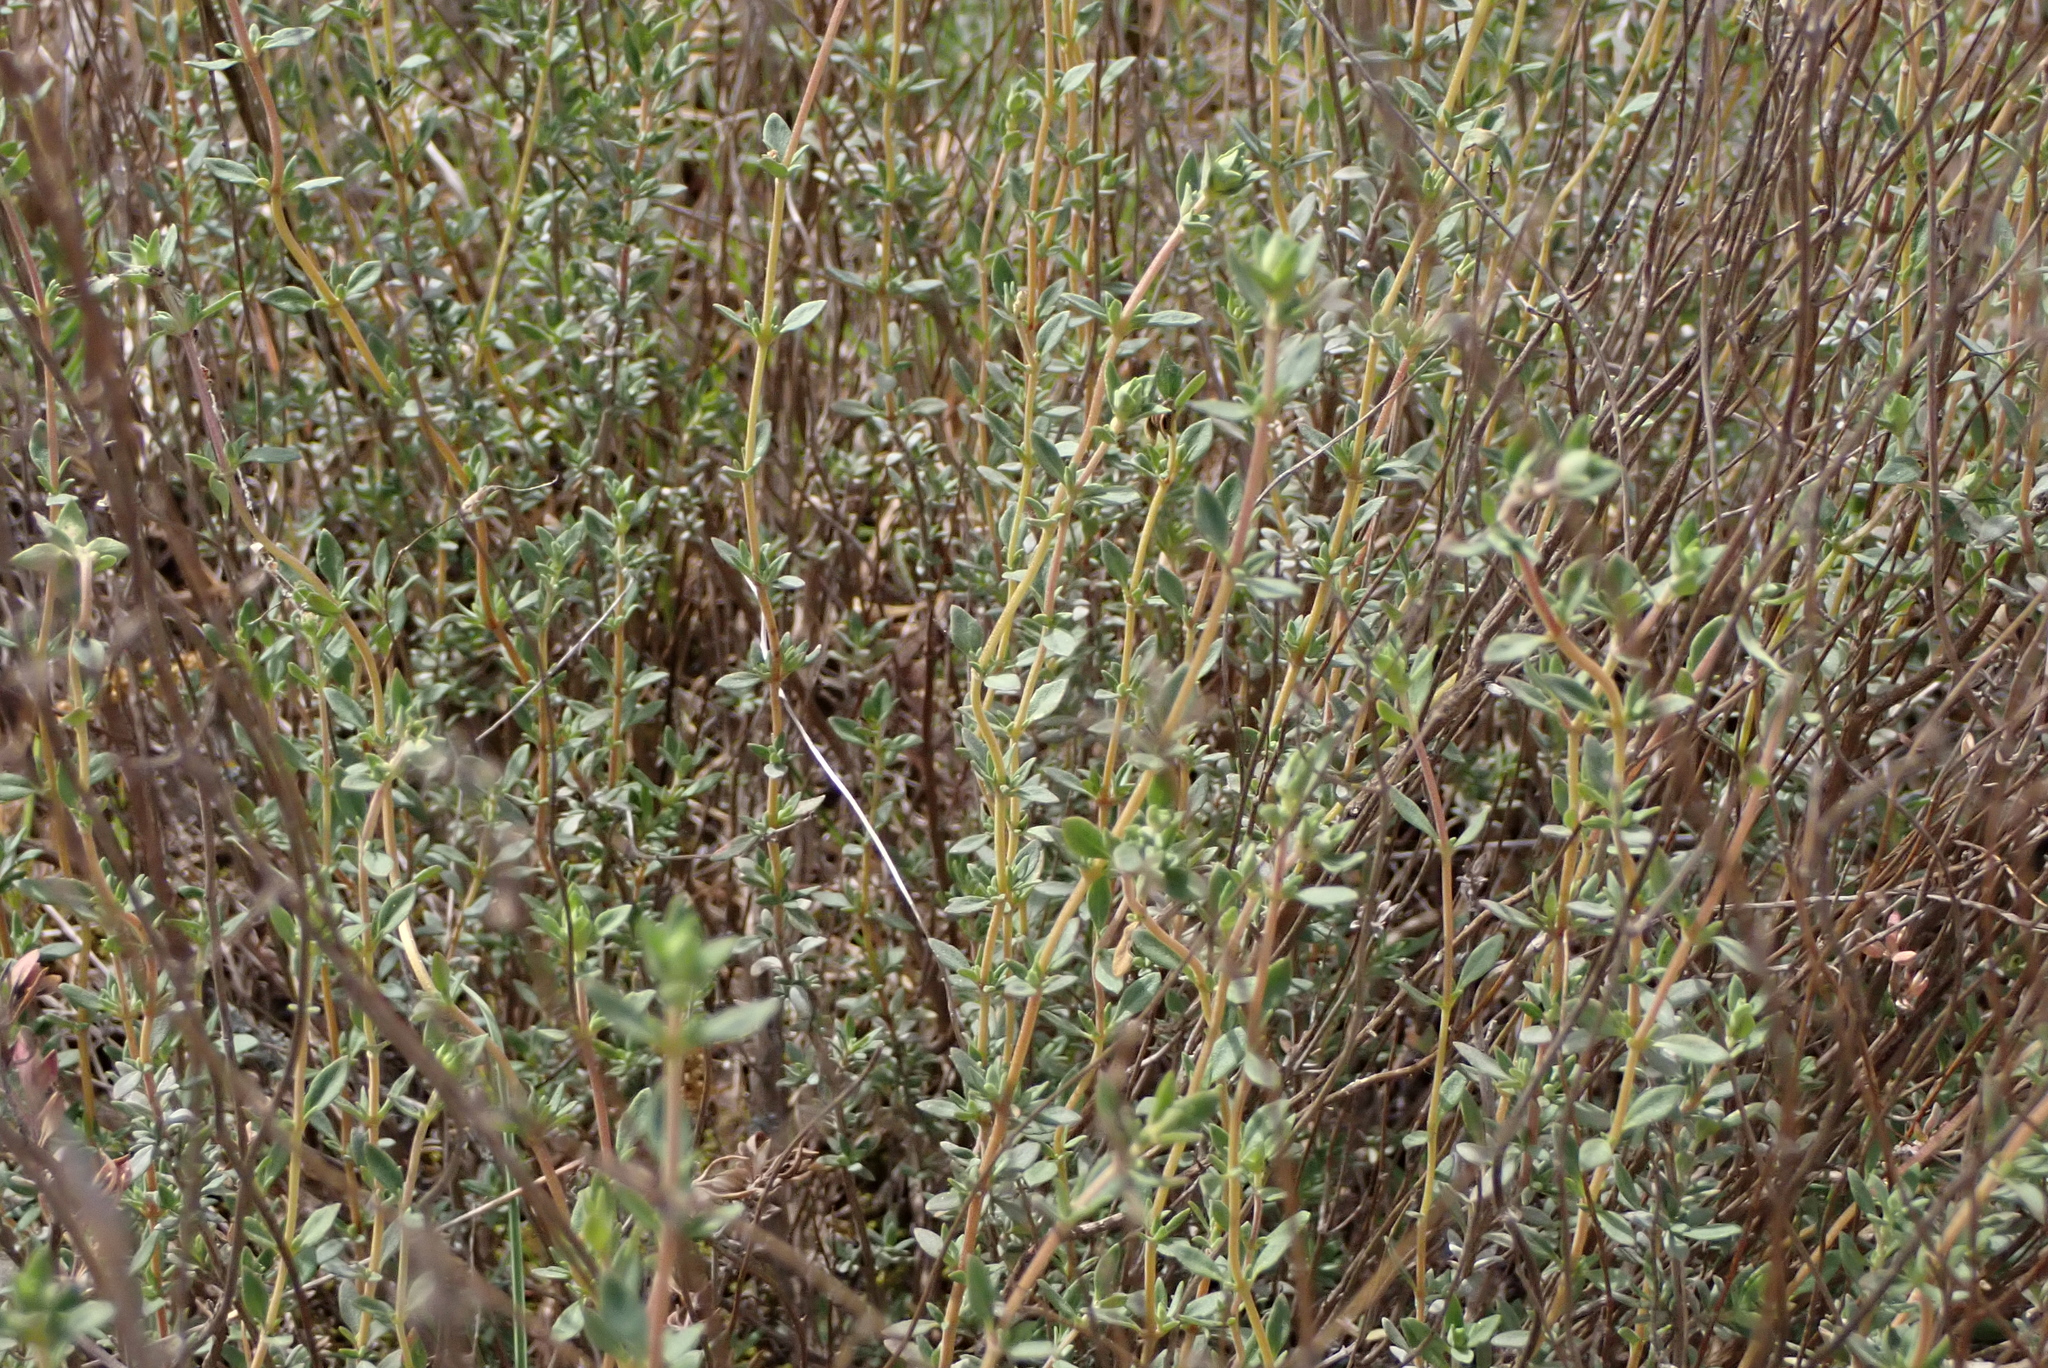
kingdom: Plantae
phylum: Tracheophyta
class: Magnoliopsida
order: Lamiales
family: Lamiaceae
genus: Thymus
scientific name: Thymus mastichina
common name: Mastic thyme
